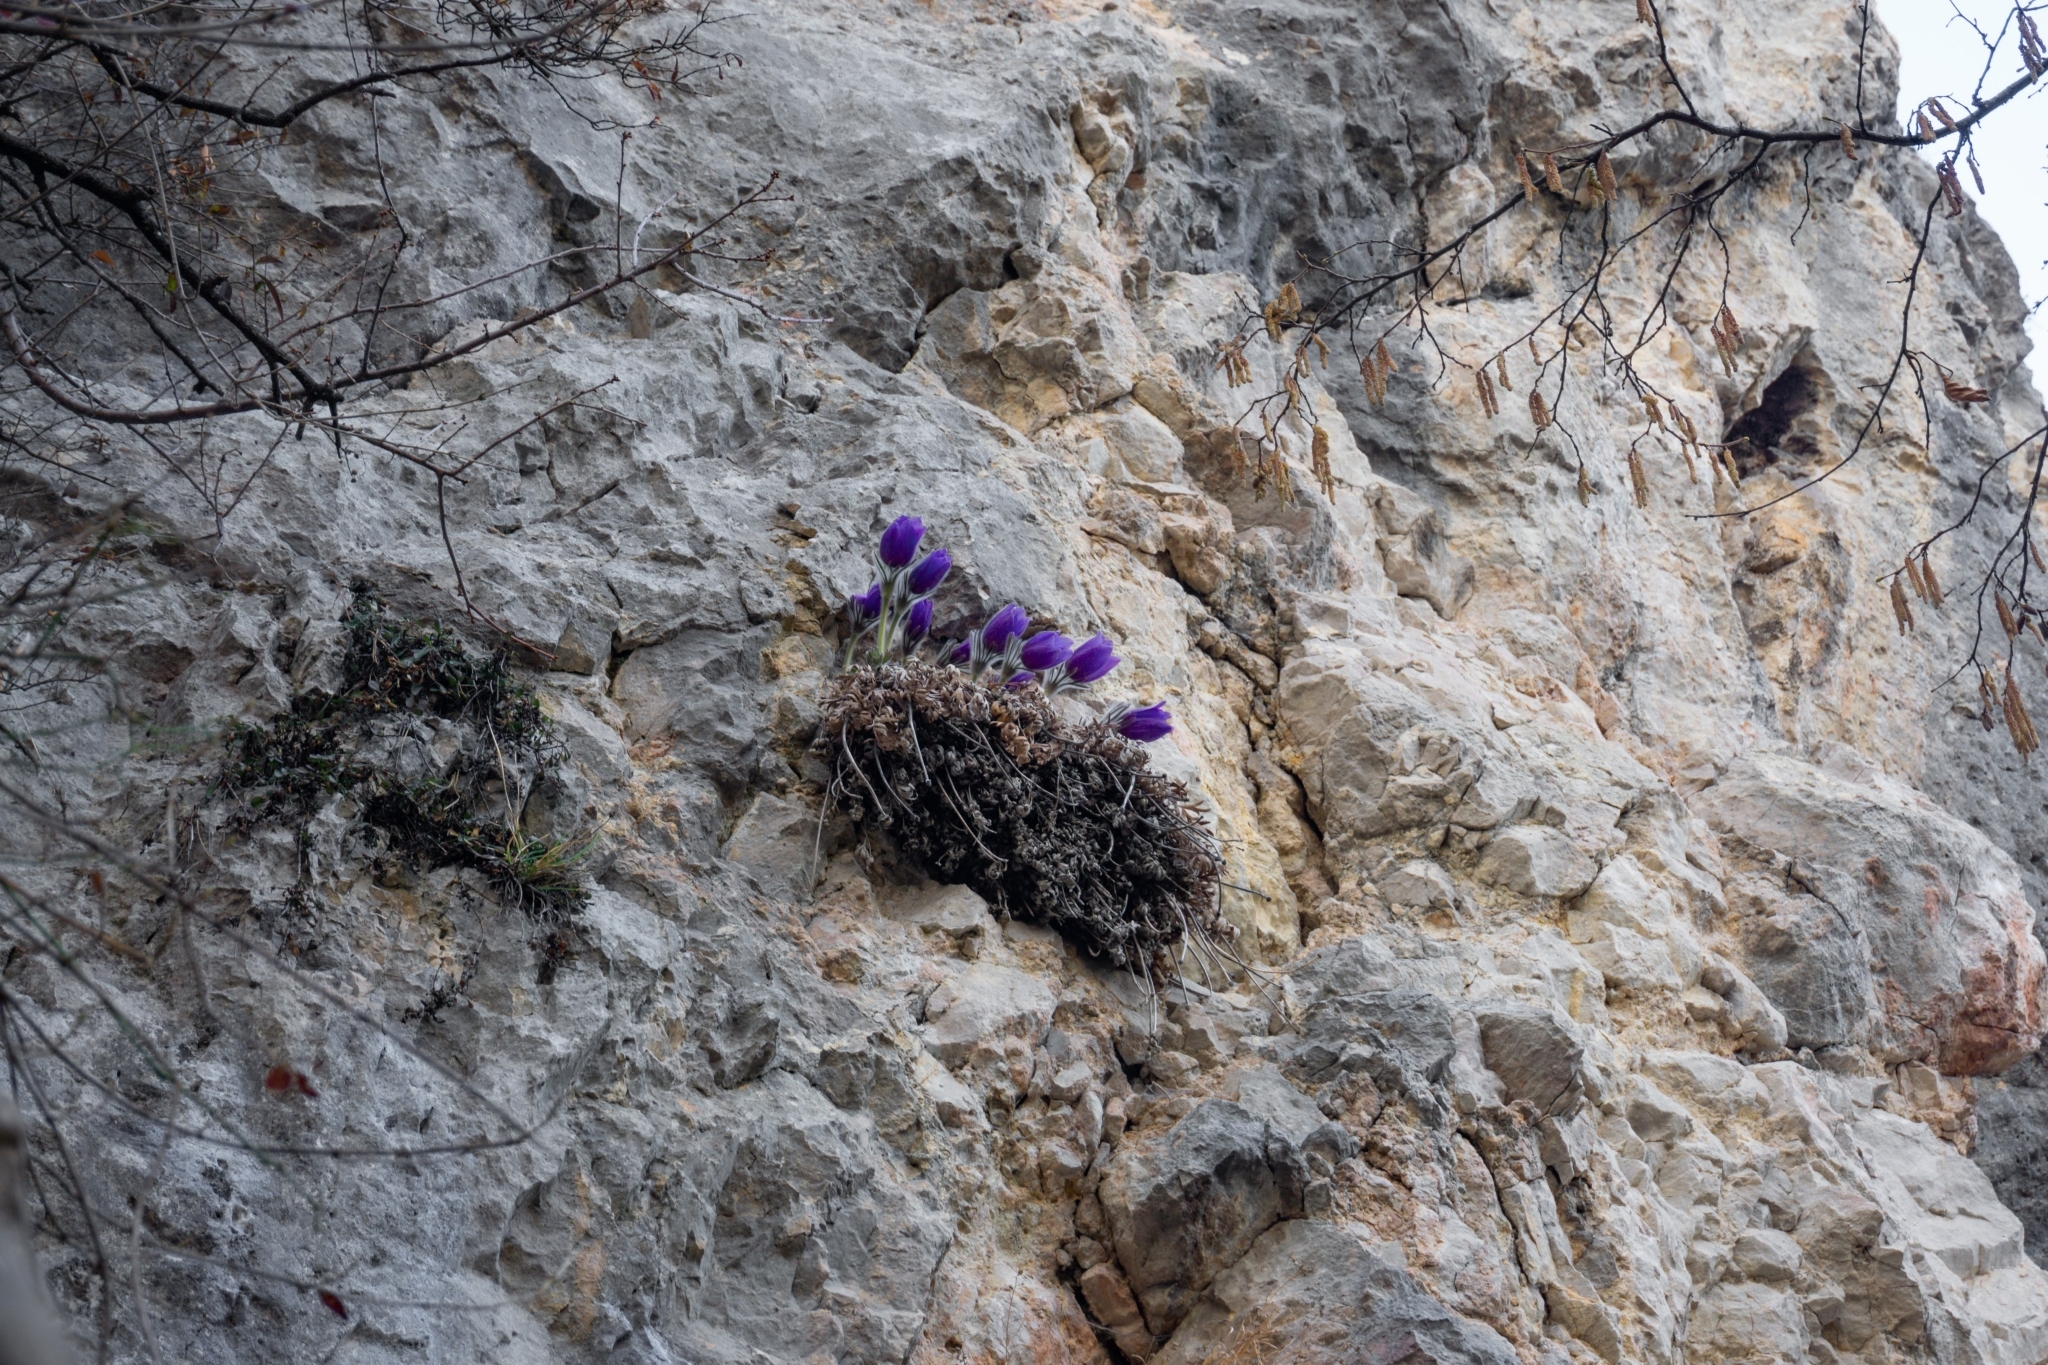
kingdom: Plantae
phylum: Tracheophyta
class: Magnoliopsida
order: Ranunculales
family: Ranunculaceae
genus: Pulsatilla
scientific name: Pulsatilla grandis
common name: Greater pasque flower
